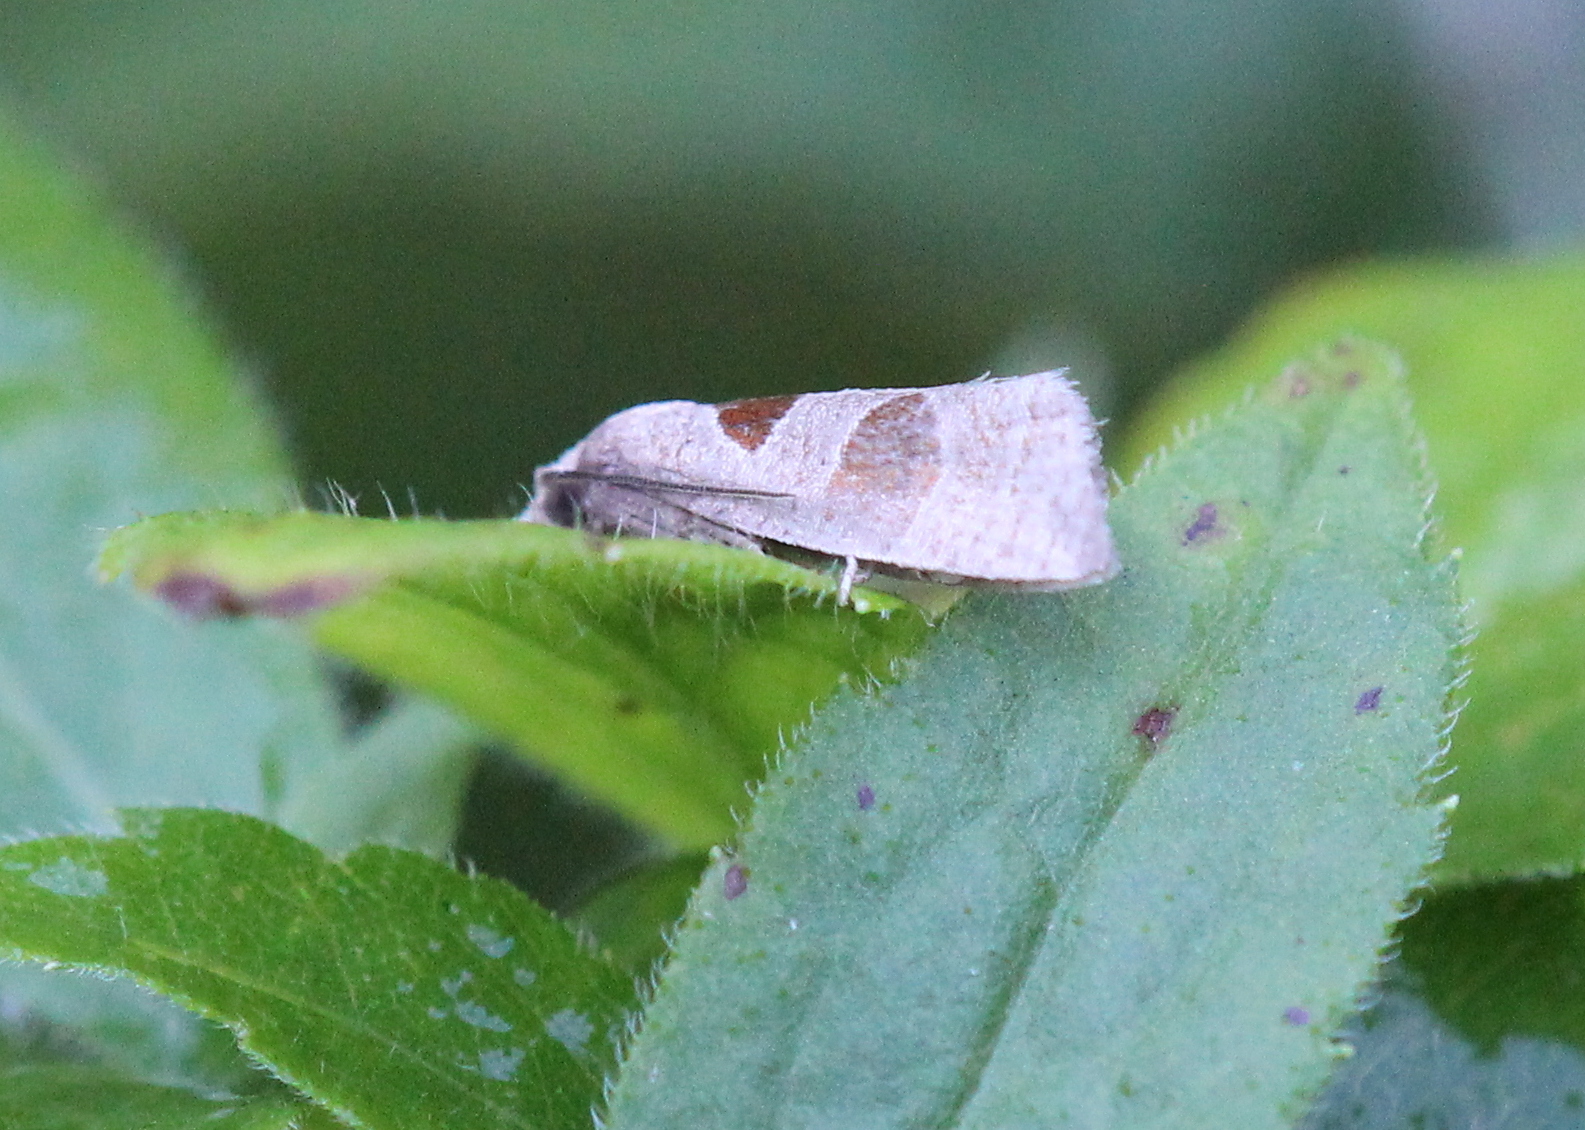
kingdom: Animalia
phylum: Arthropoda
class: Insecta
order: Lepidoptera
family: Tortricidae
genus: Pelochrista
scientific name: Pelochrista dorsisignatana
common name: Triangle-backed pelochrista moth
